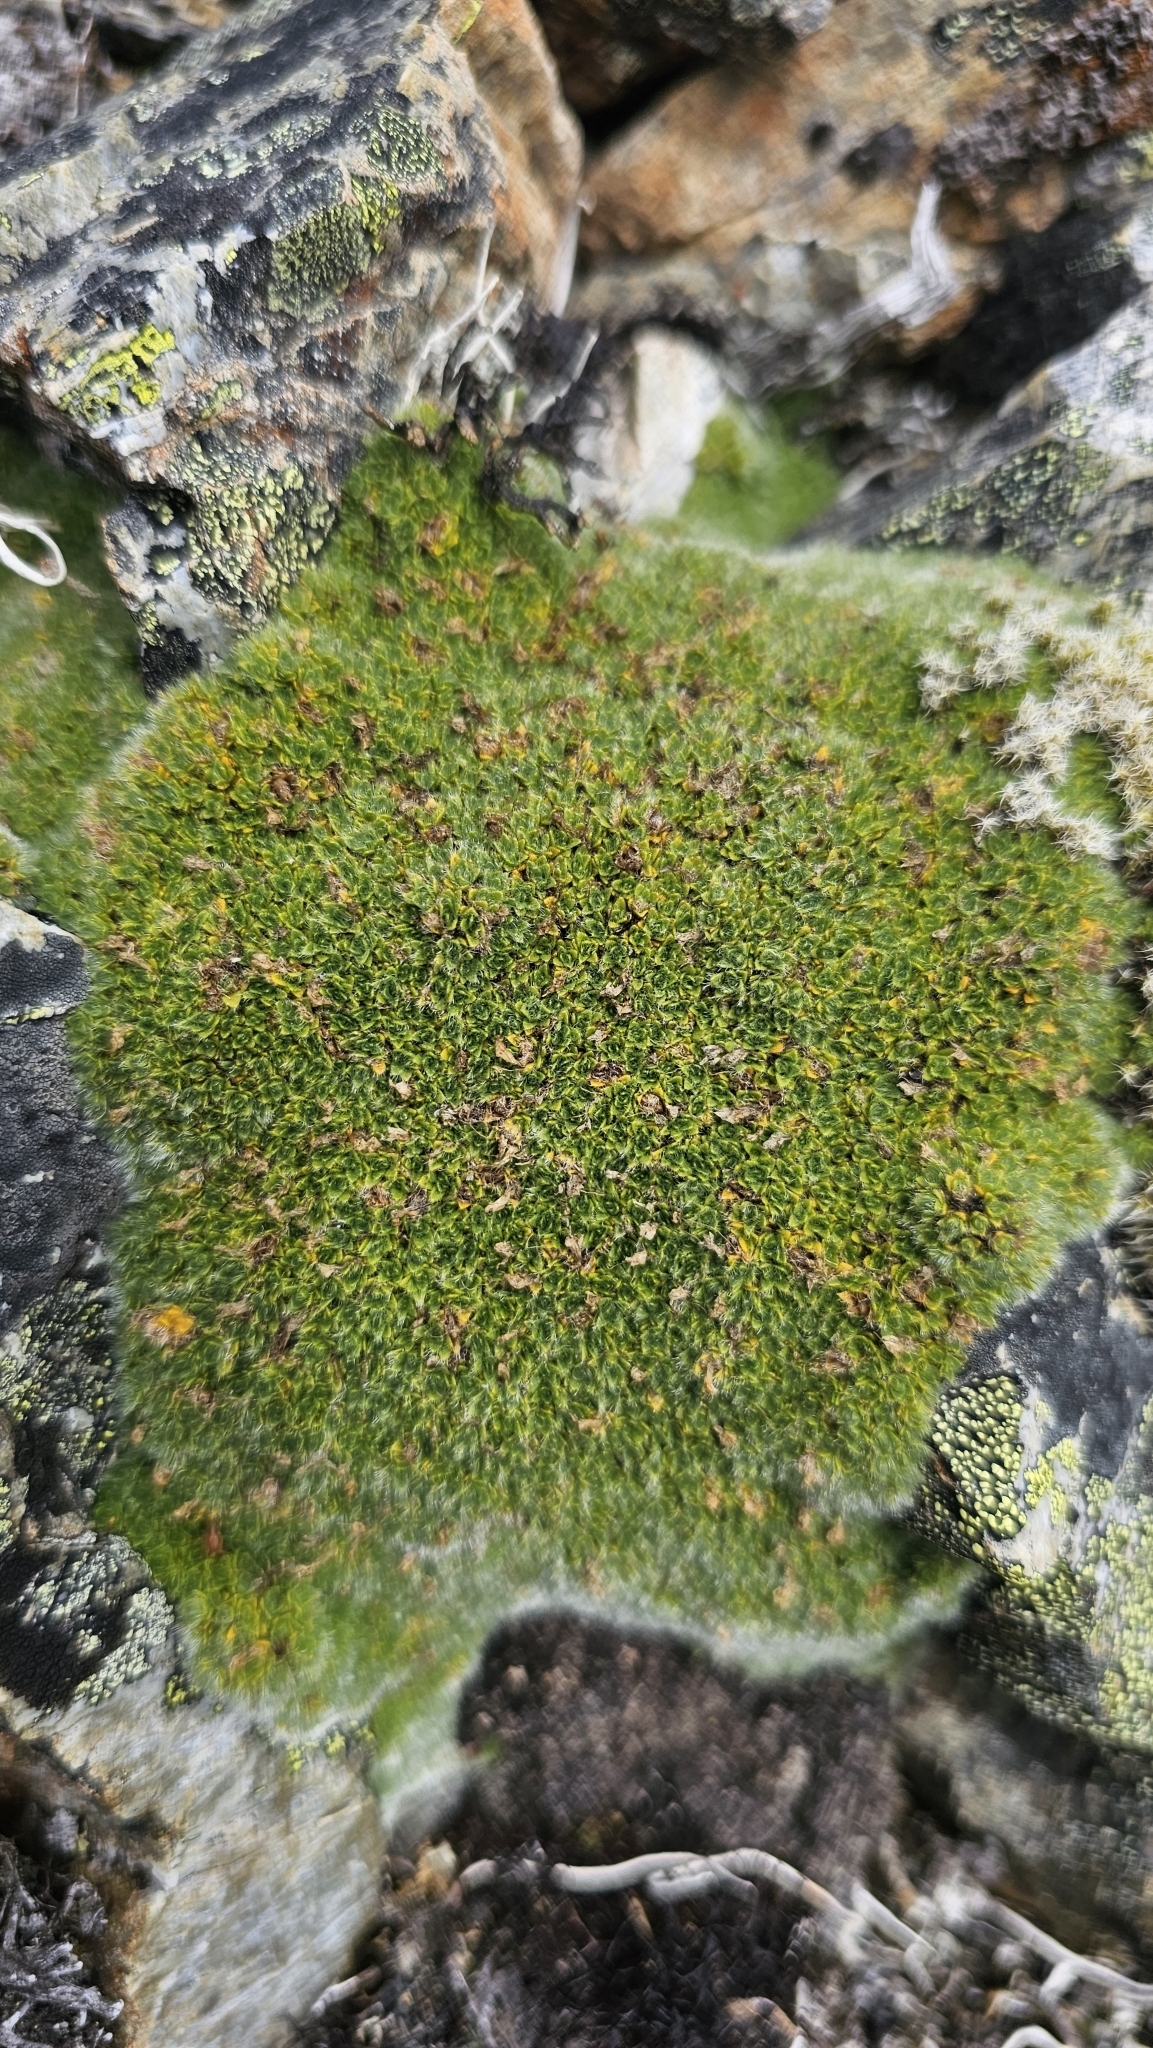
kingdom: Plantae
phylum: Tracheophyta
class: Magnoliopsida
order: Lamiales
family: Plantaginaceae
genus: Veronica
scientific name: Veronica pulvinaris
